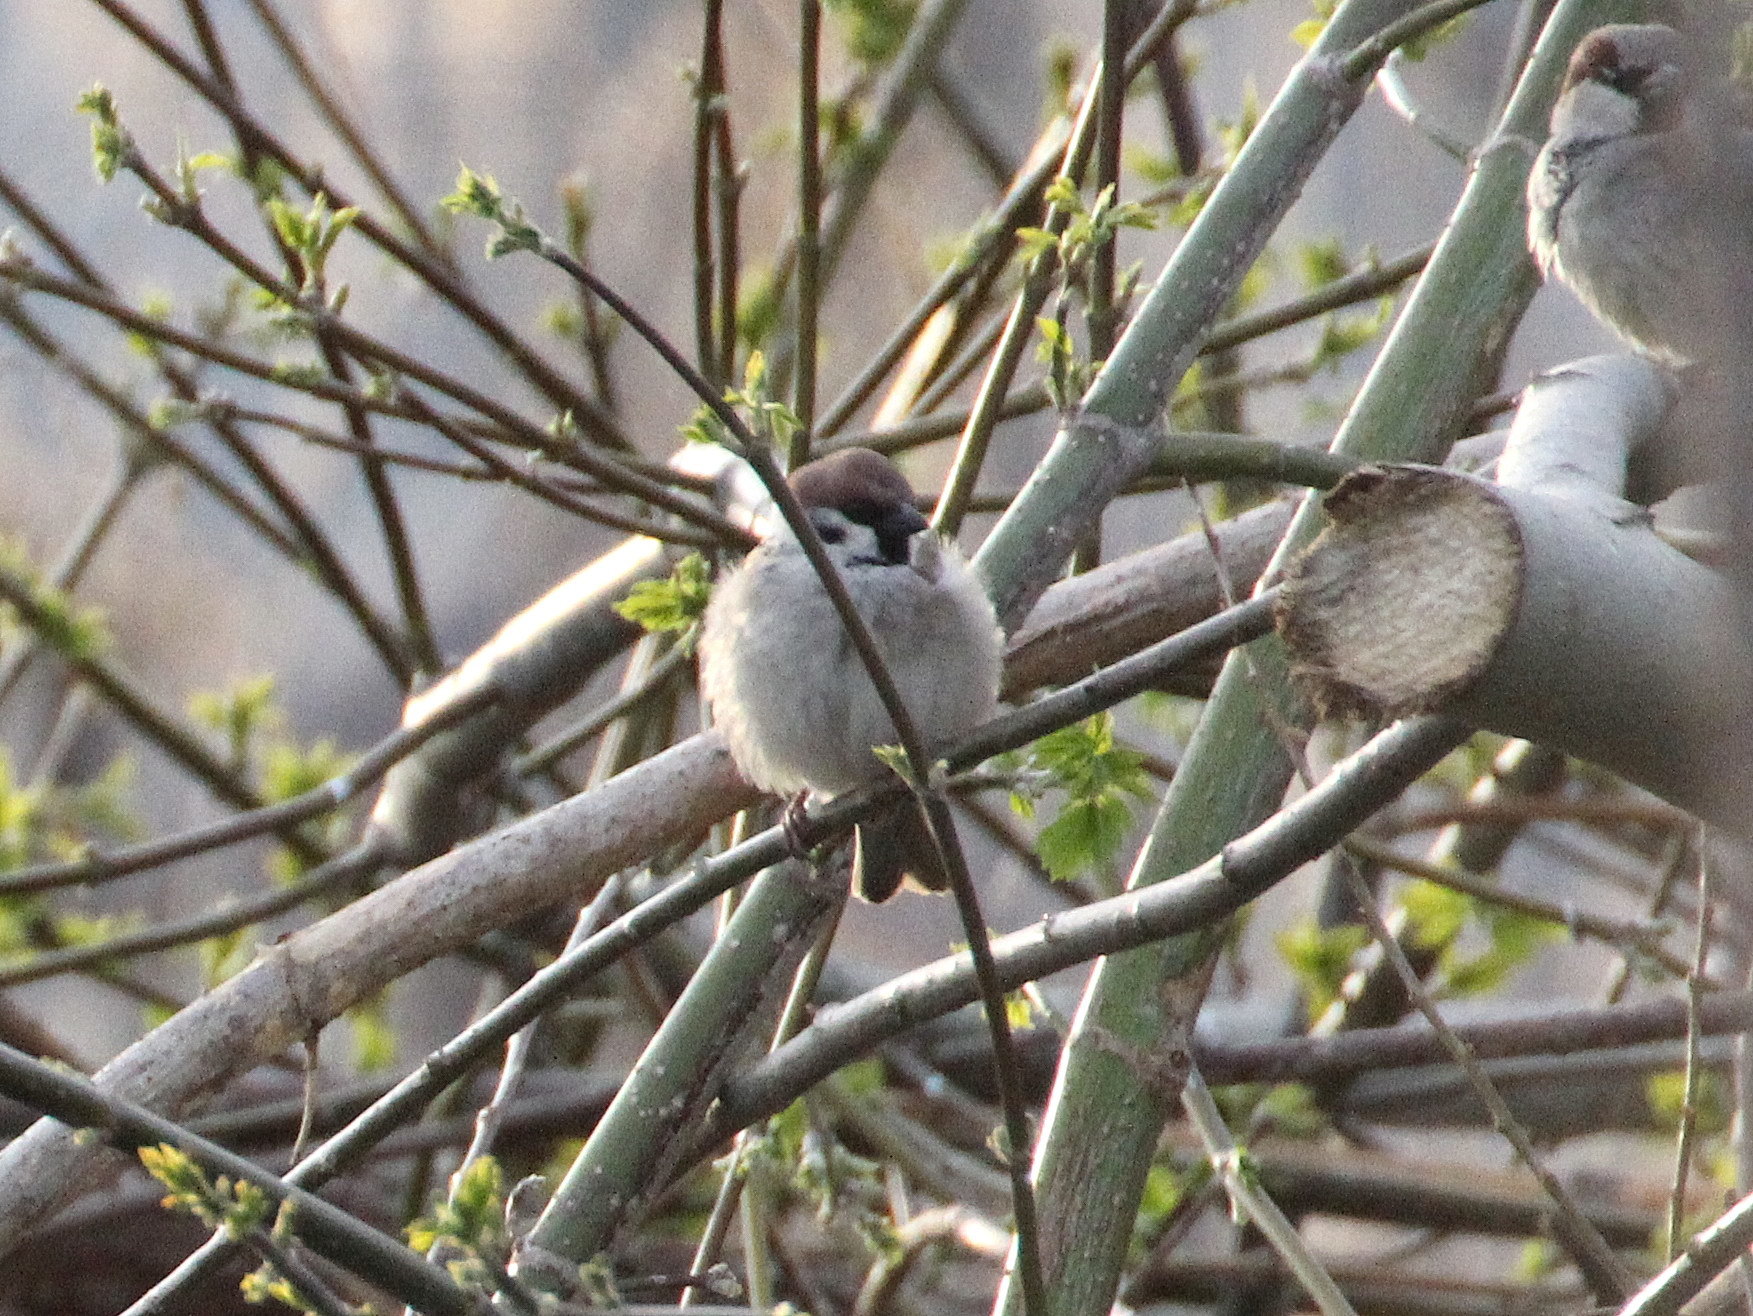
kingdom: Animalia
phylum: Chordata
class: Aves
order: Passeriformes
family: Passeridae
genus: Passer
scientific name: Passer montanus
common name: Eurasian tree sparrow
